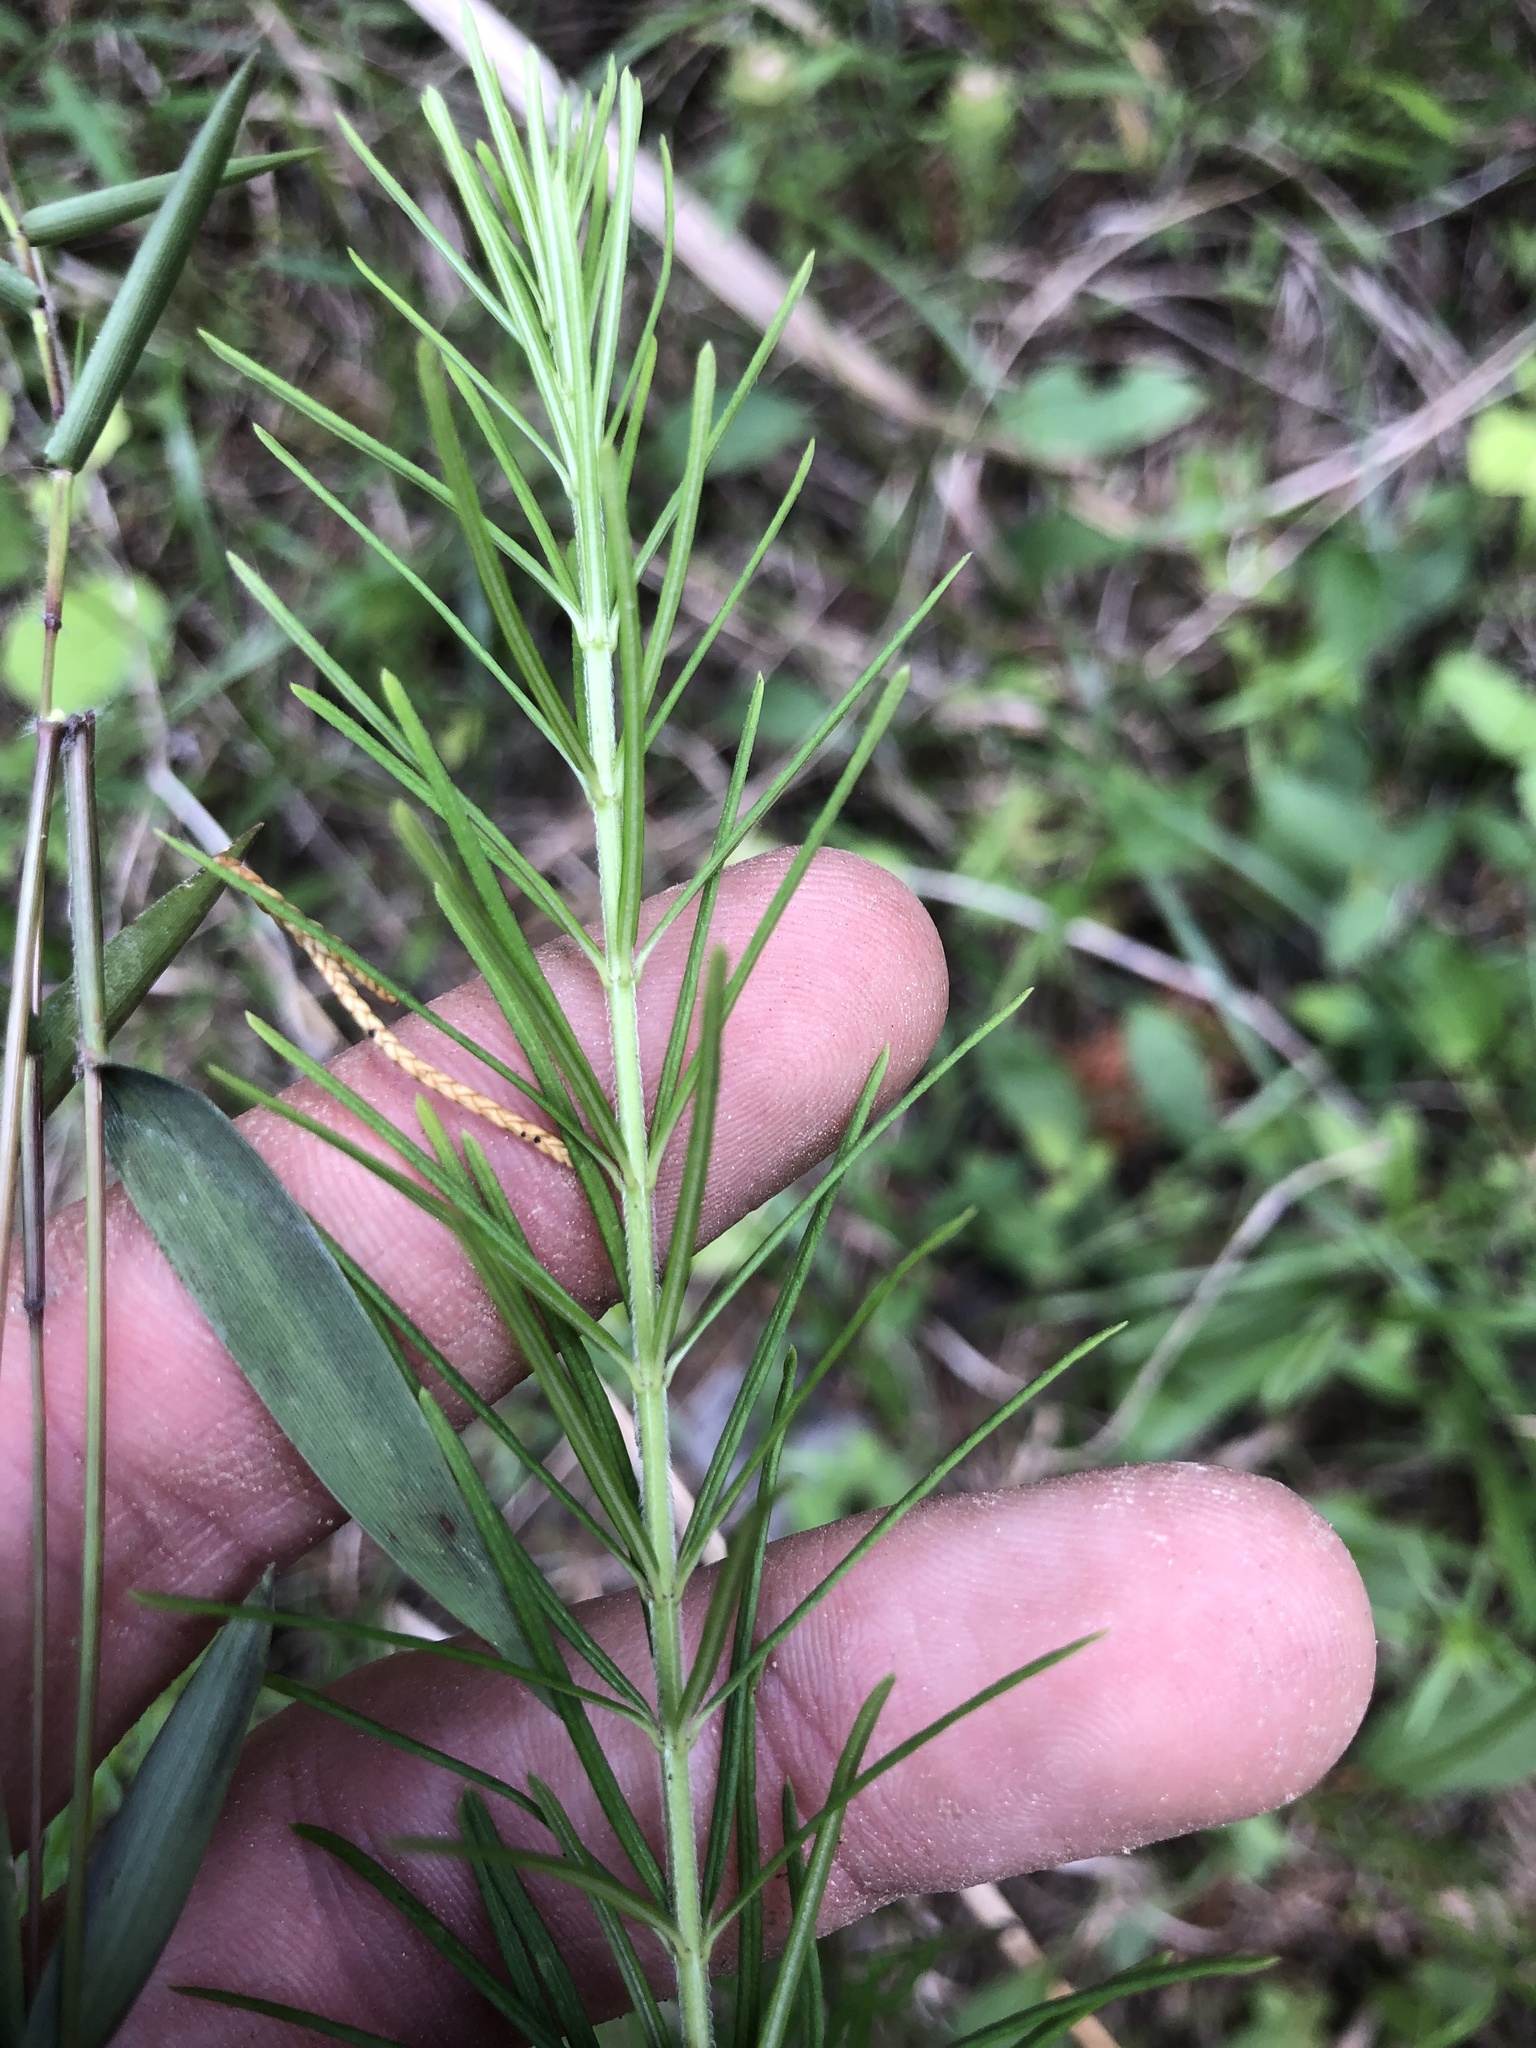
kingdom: Plantae
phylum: Tracheophyta
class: Magnoliopsida
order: Gentianales
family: Apocynaceae
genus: Asclepias
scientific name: Asclepias verticillata
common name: Eastern whorled milkweed
